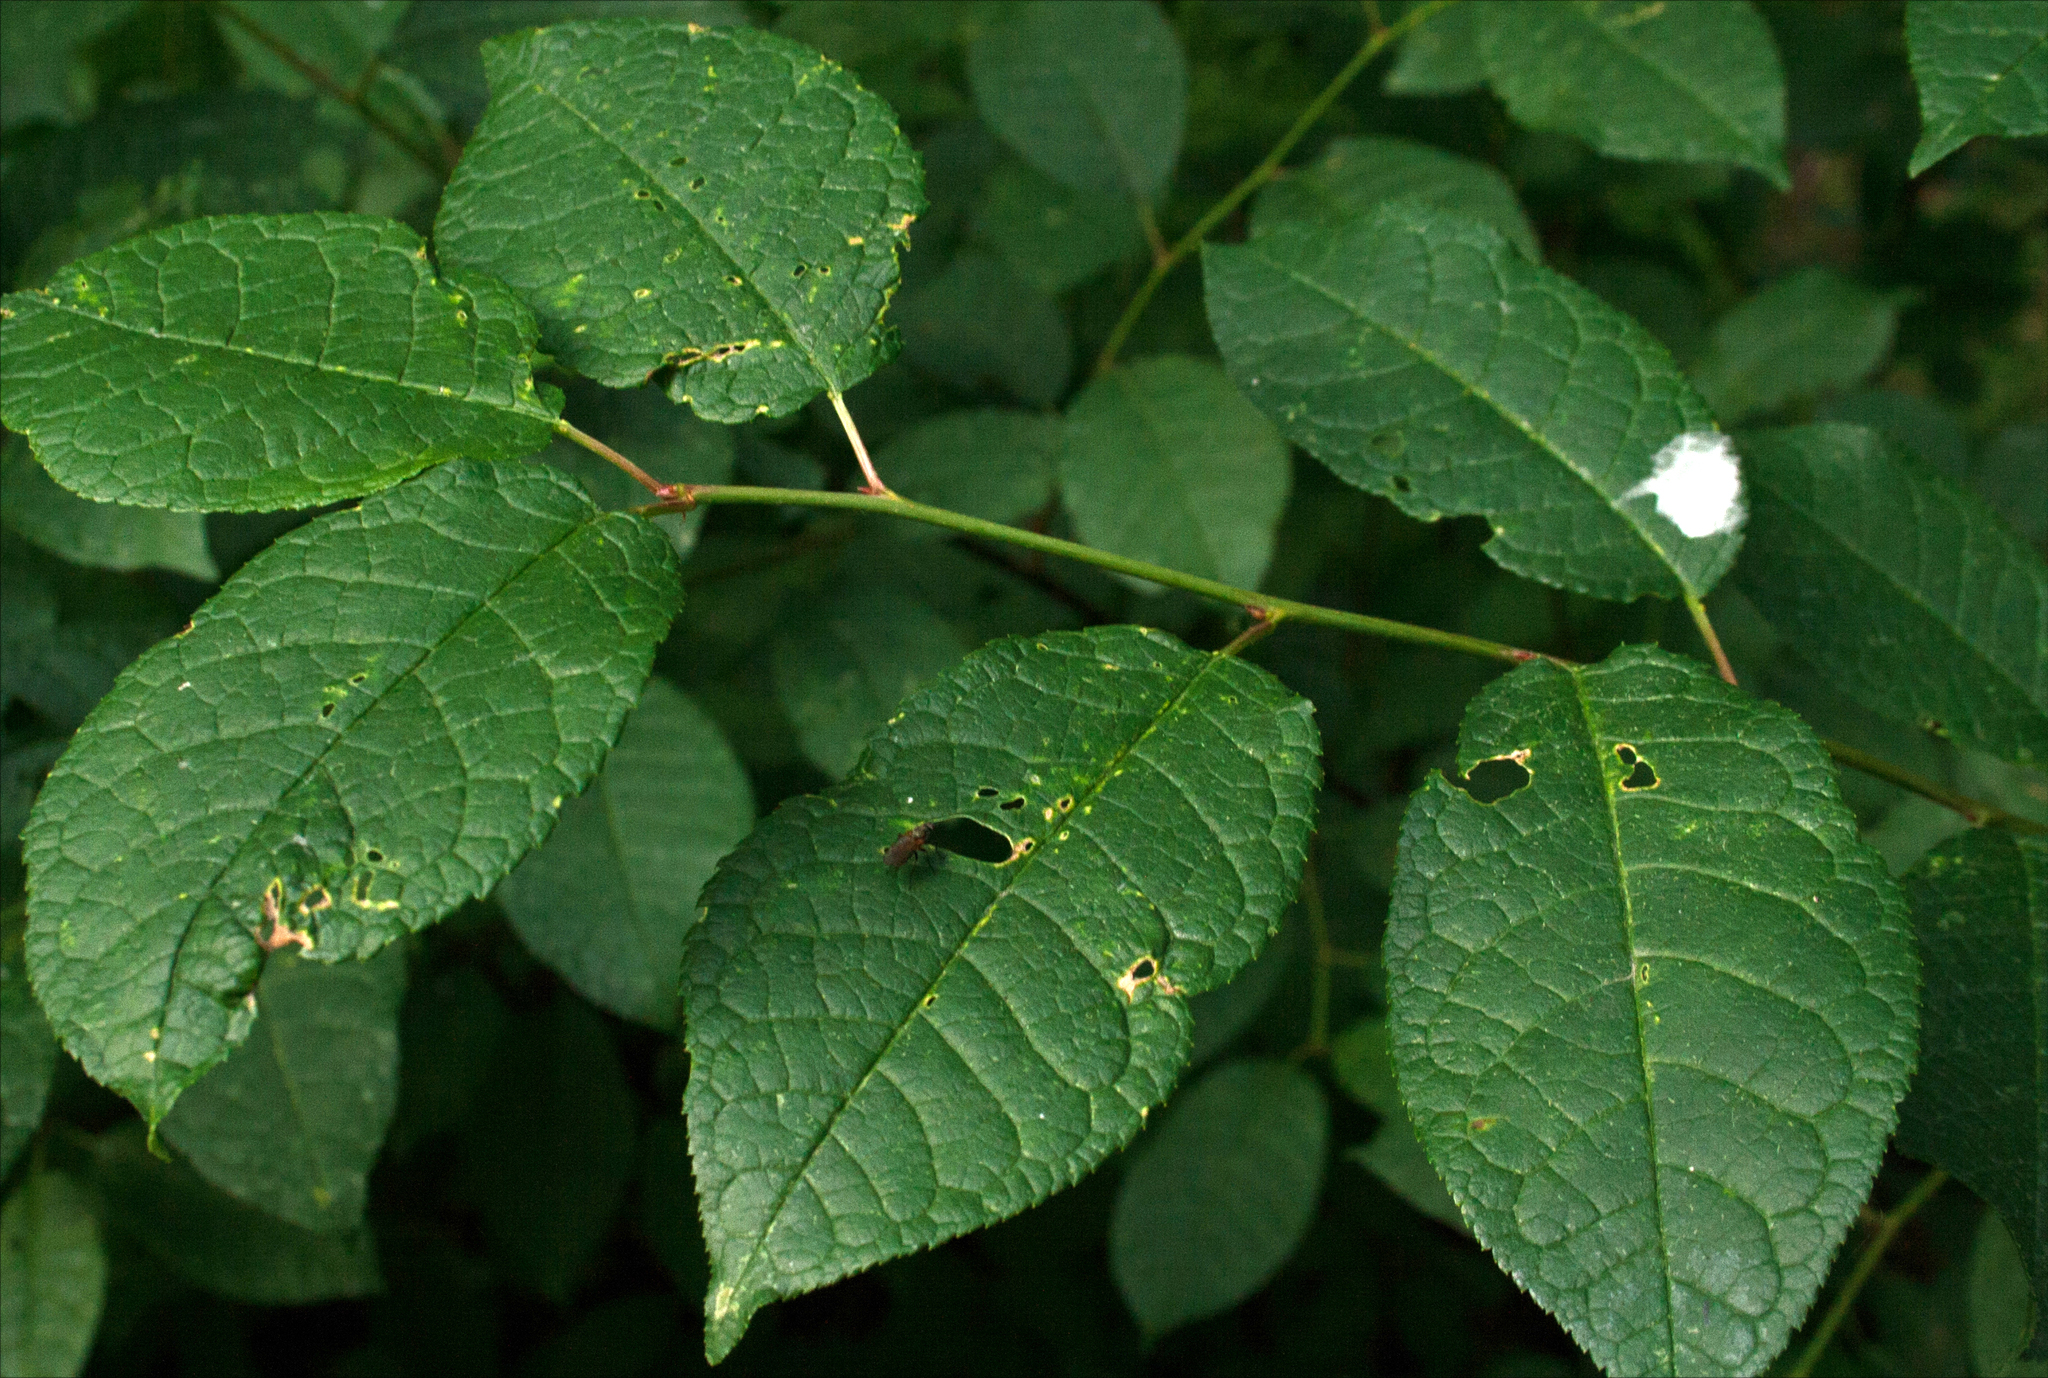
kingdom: Plantae
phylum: Tracheophyta
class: Magnoliopsida
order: Rosales
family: Rosaceae
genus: Prunus
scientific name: Prunus padus
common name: Bird cherry
